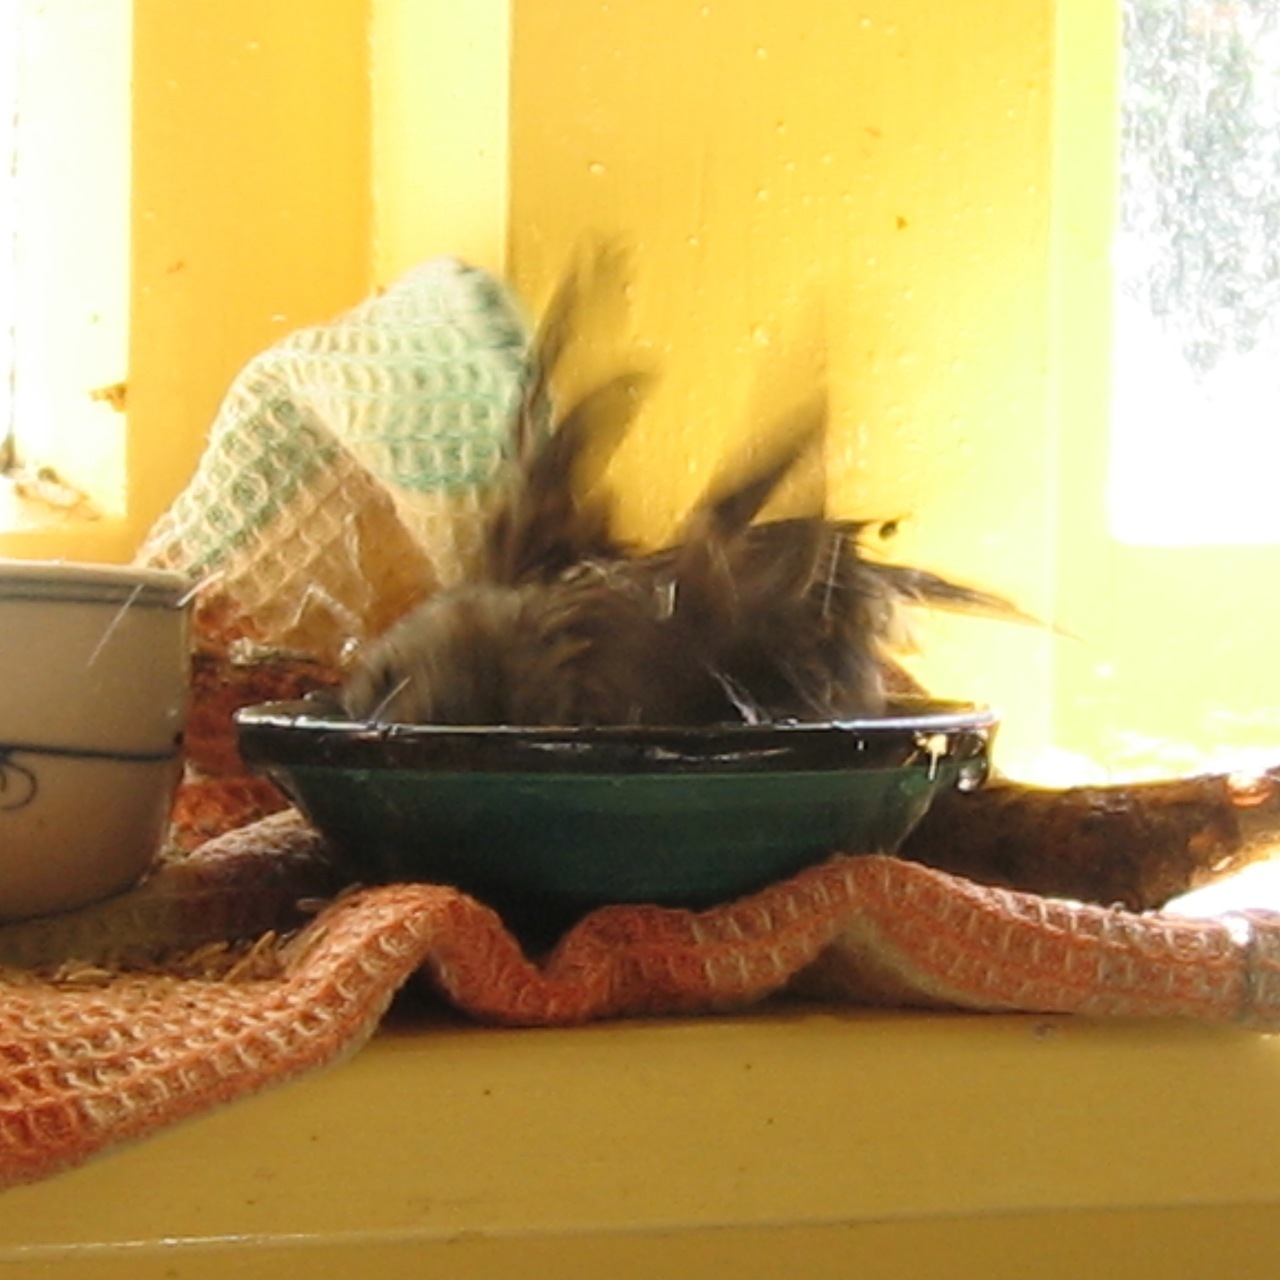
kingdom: Animalia
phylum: Chordata
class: Aves
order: Passeriformes
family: Fringillidae
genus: Acanthis
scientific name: Acanthis flammea
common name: Common redpoll
